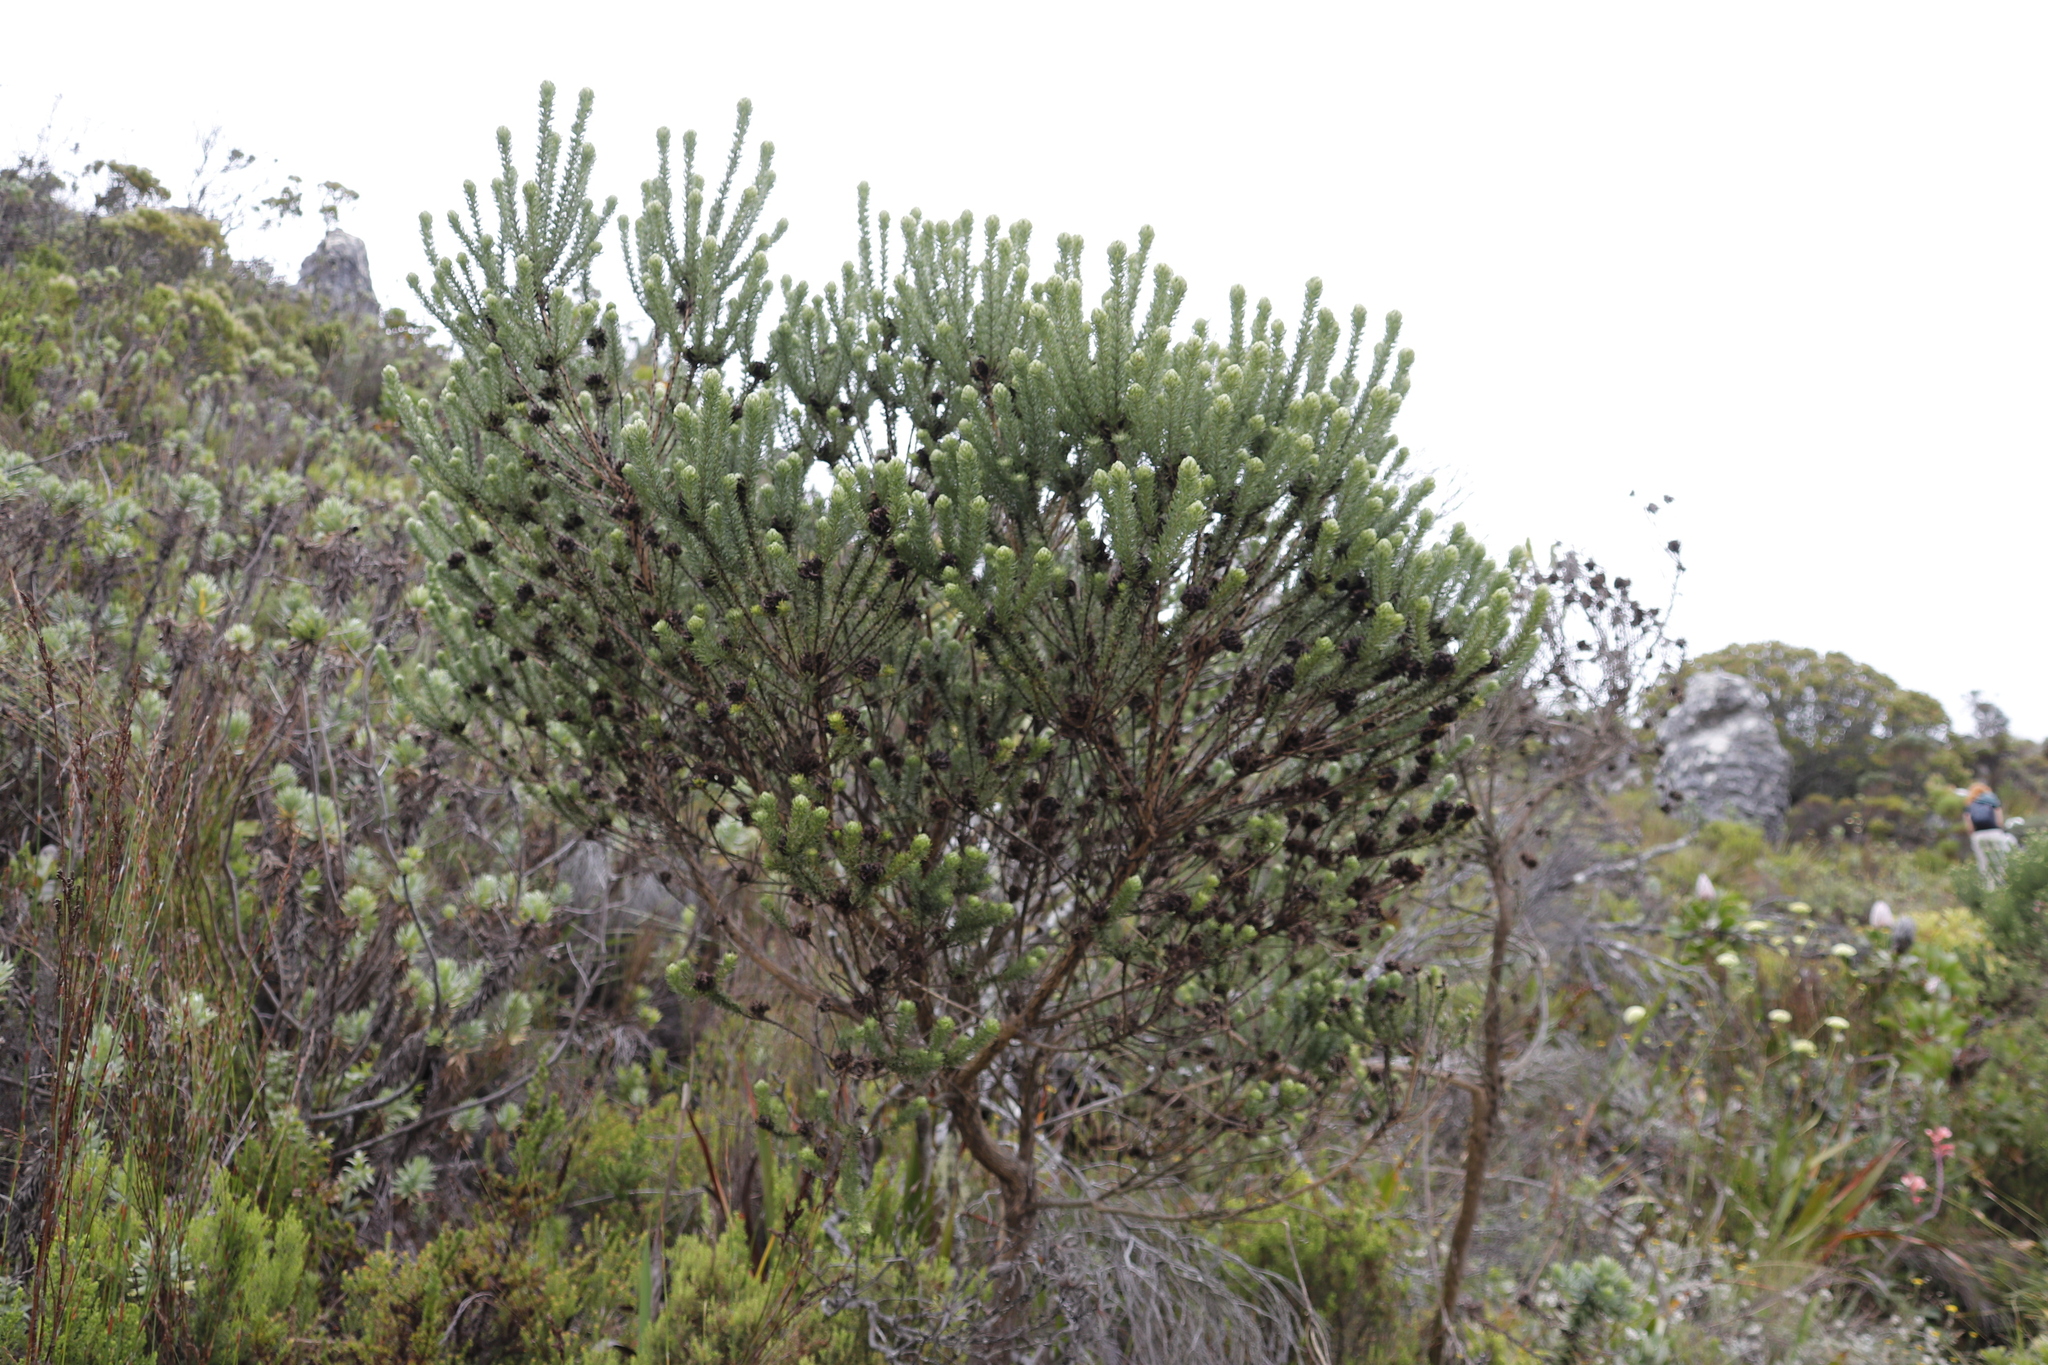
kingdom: Plantae
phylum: Tracheophyta
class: Magnoliopsida
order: Fabales
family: Fabaceae
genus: Aspalathus
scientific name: Aspalathus capitata
